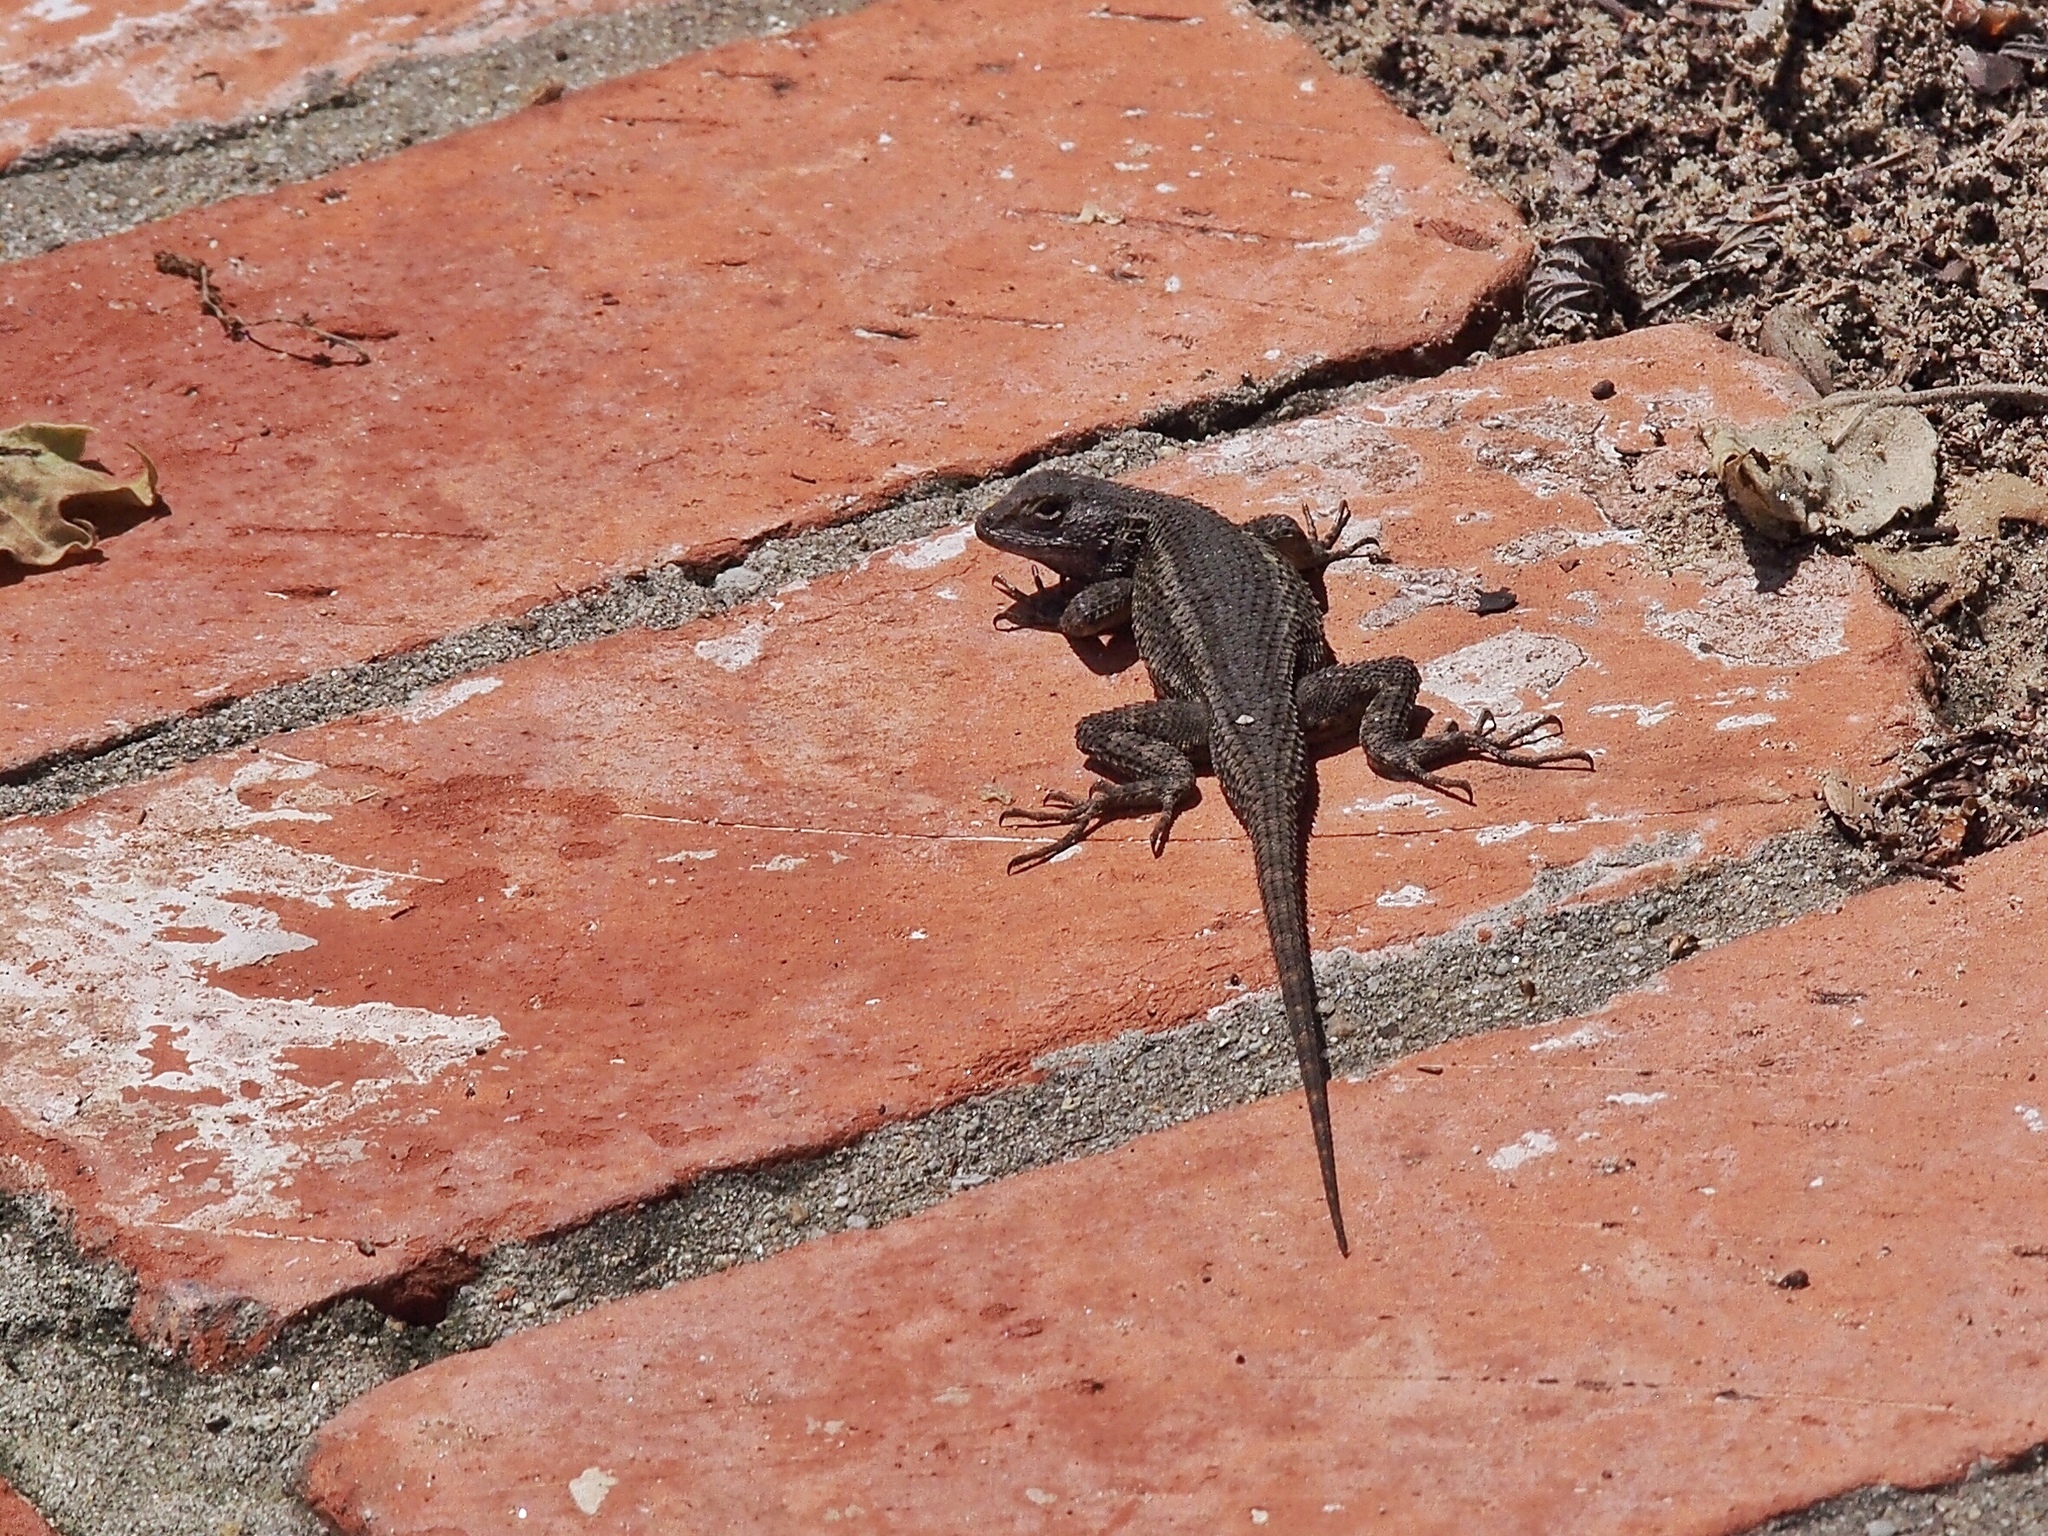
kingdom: Animalia
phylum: Chordata
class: Squamata
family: Phrynosomatidae
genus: Sceloporus
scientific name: Sceloporus occidentalis
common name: Western fence lizard
